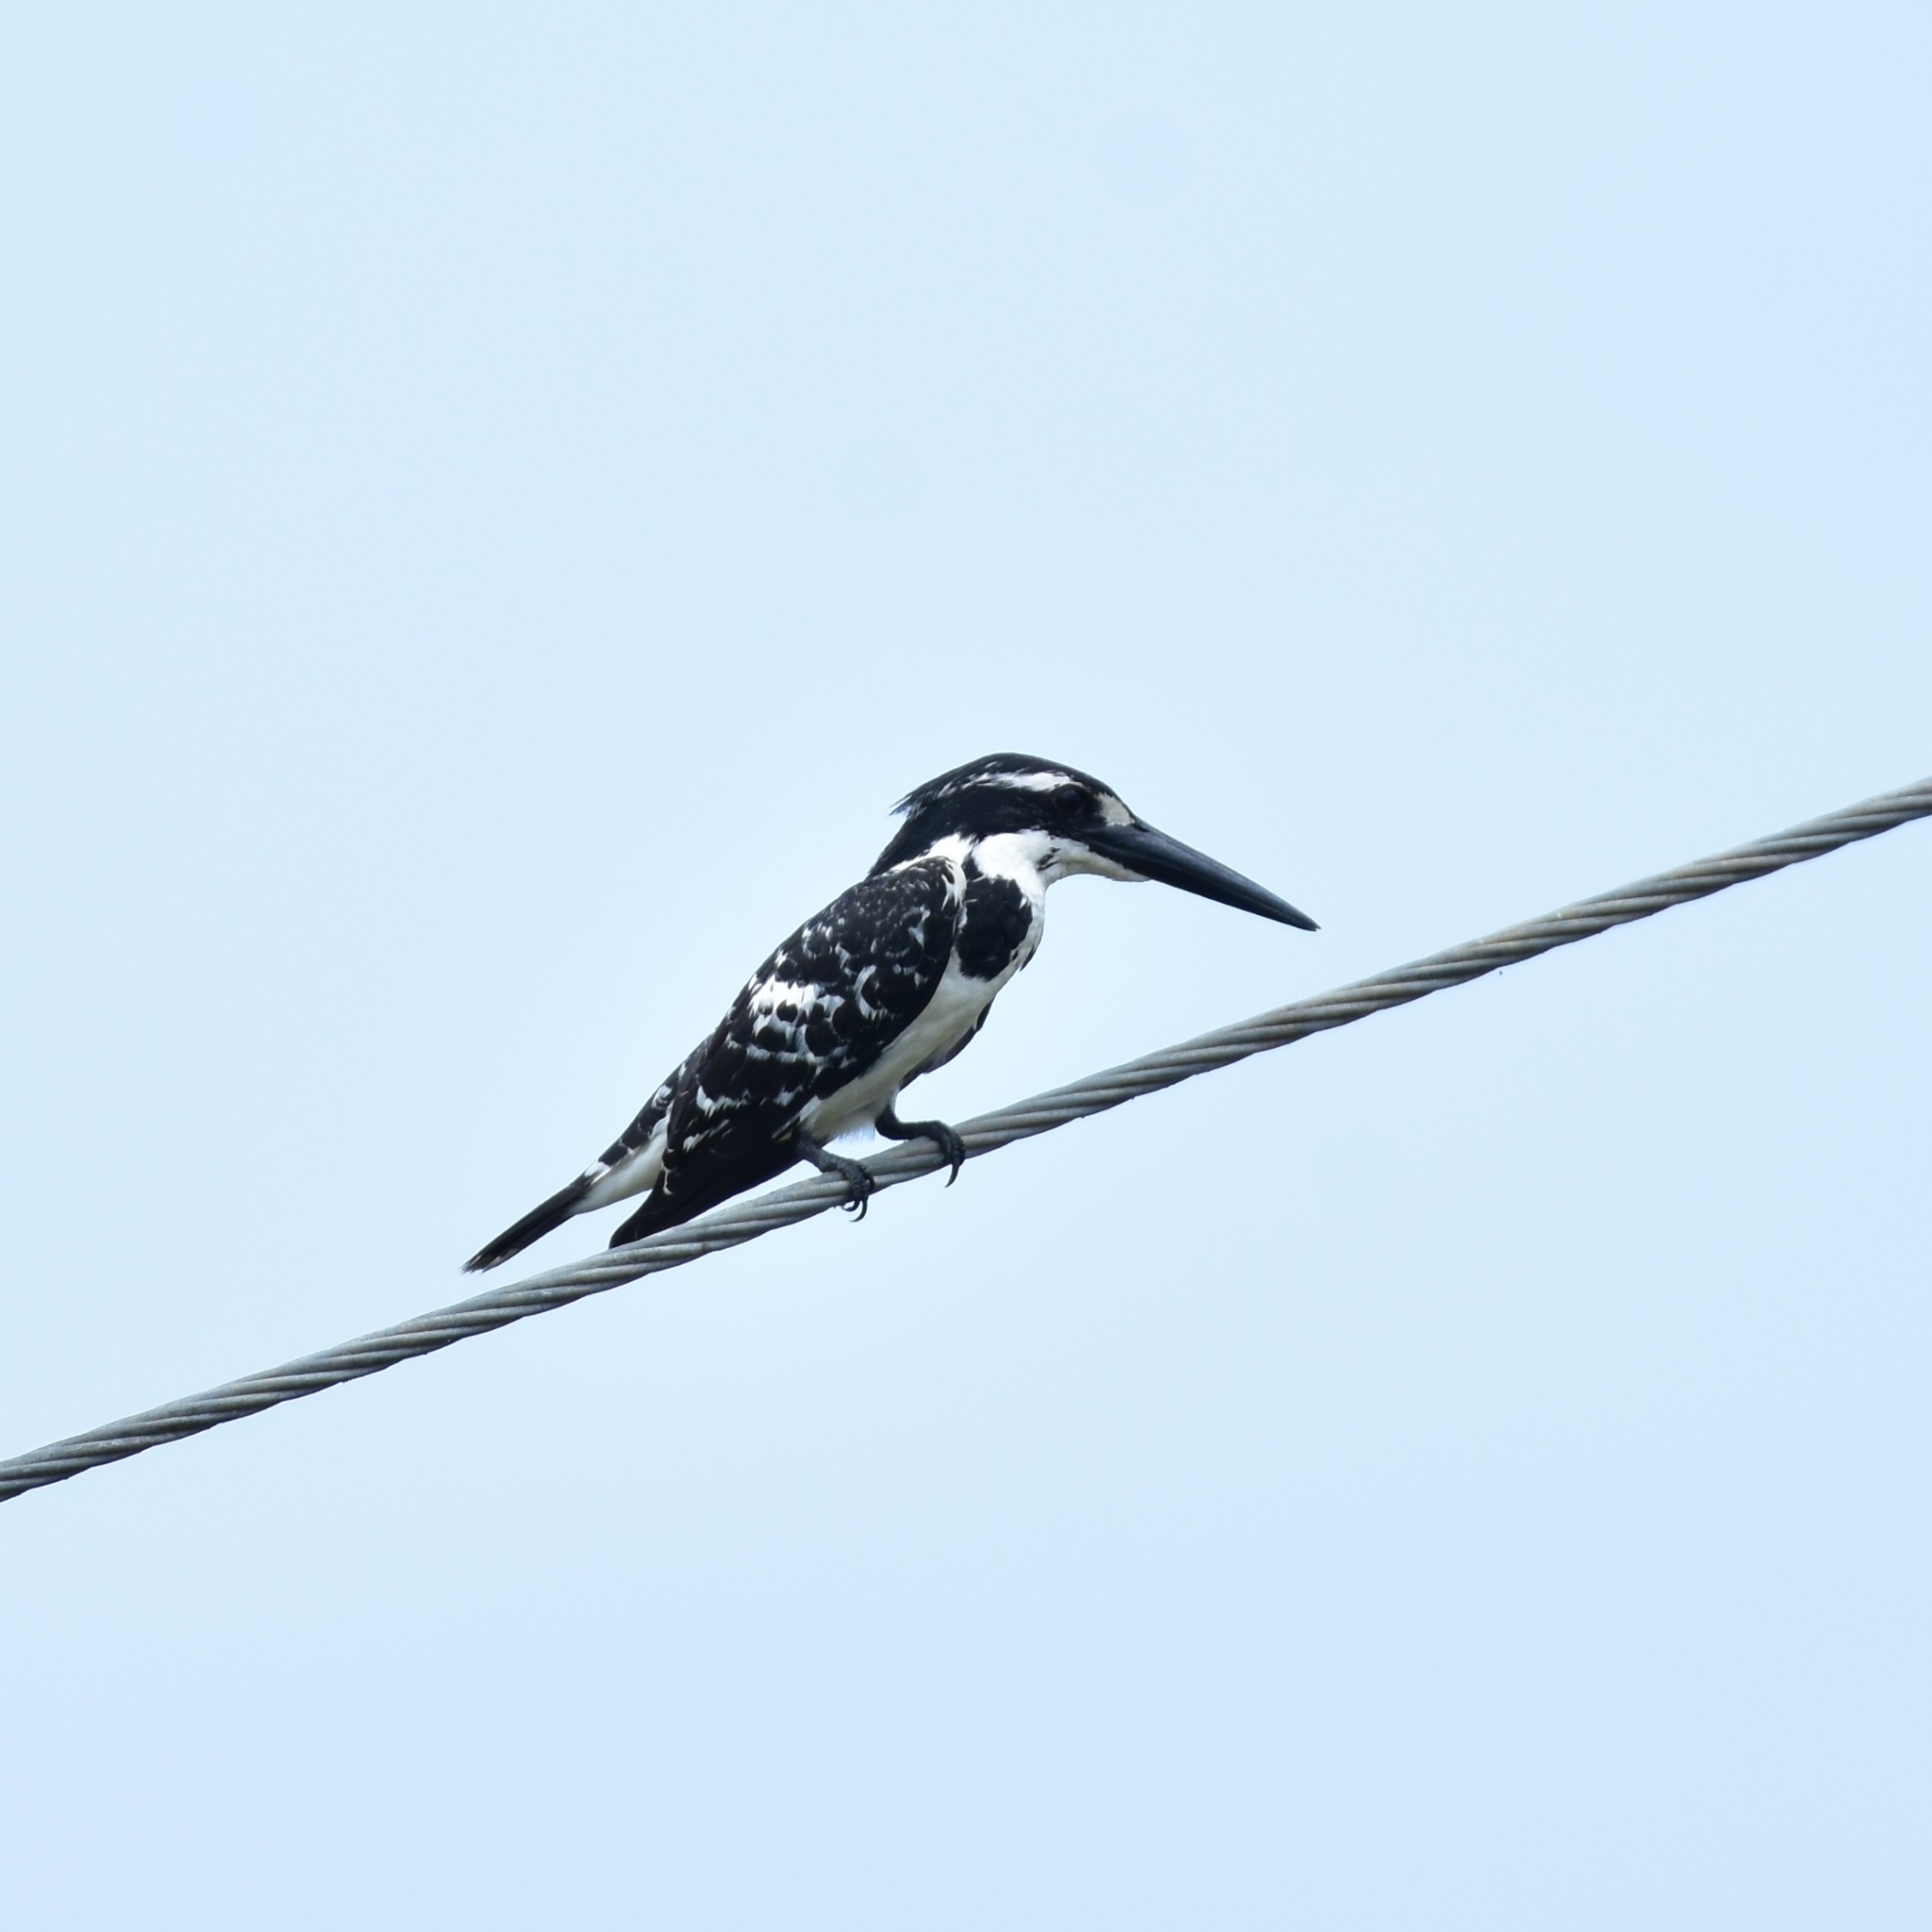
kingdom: Animalia
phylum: Chordata
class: Aves
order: Coraciiformes
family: Alcedinidae
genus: Ceryle
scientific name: Ceryle rudis
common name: Pied kingfisher
